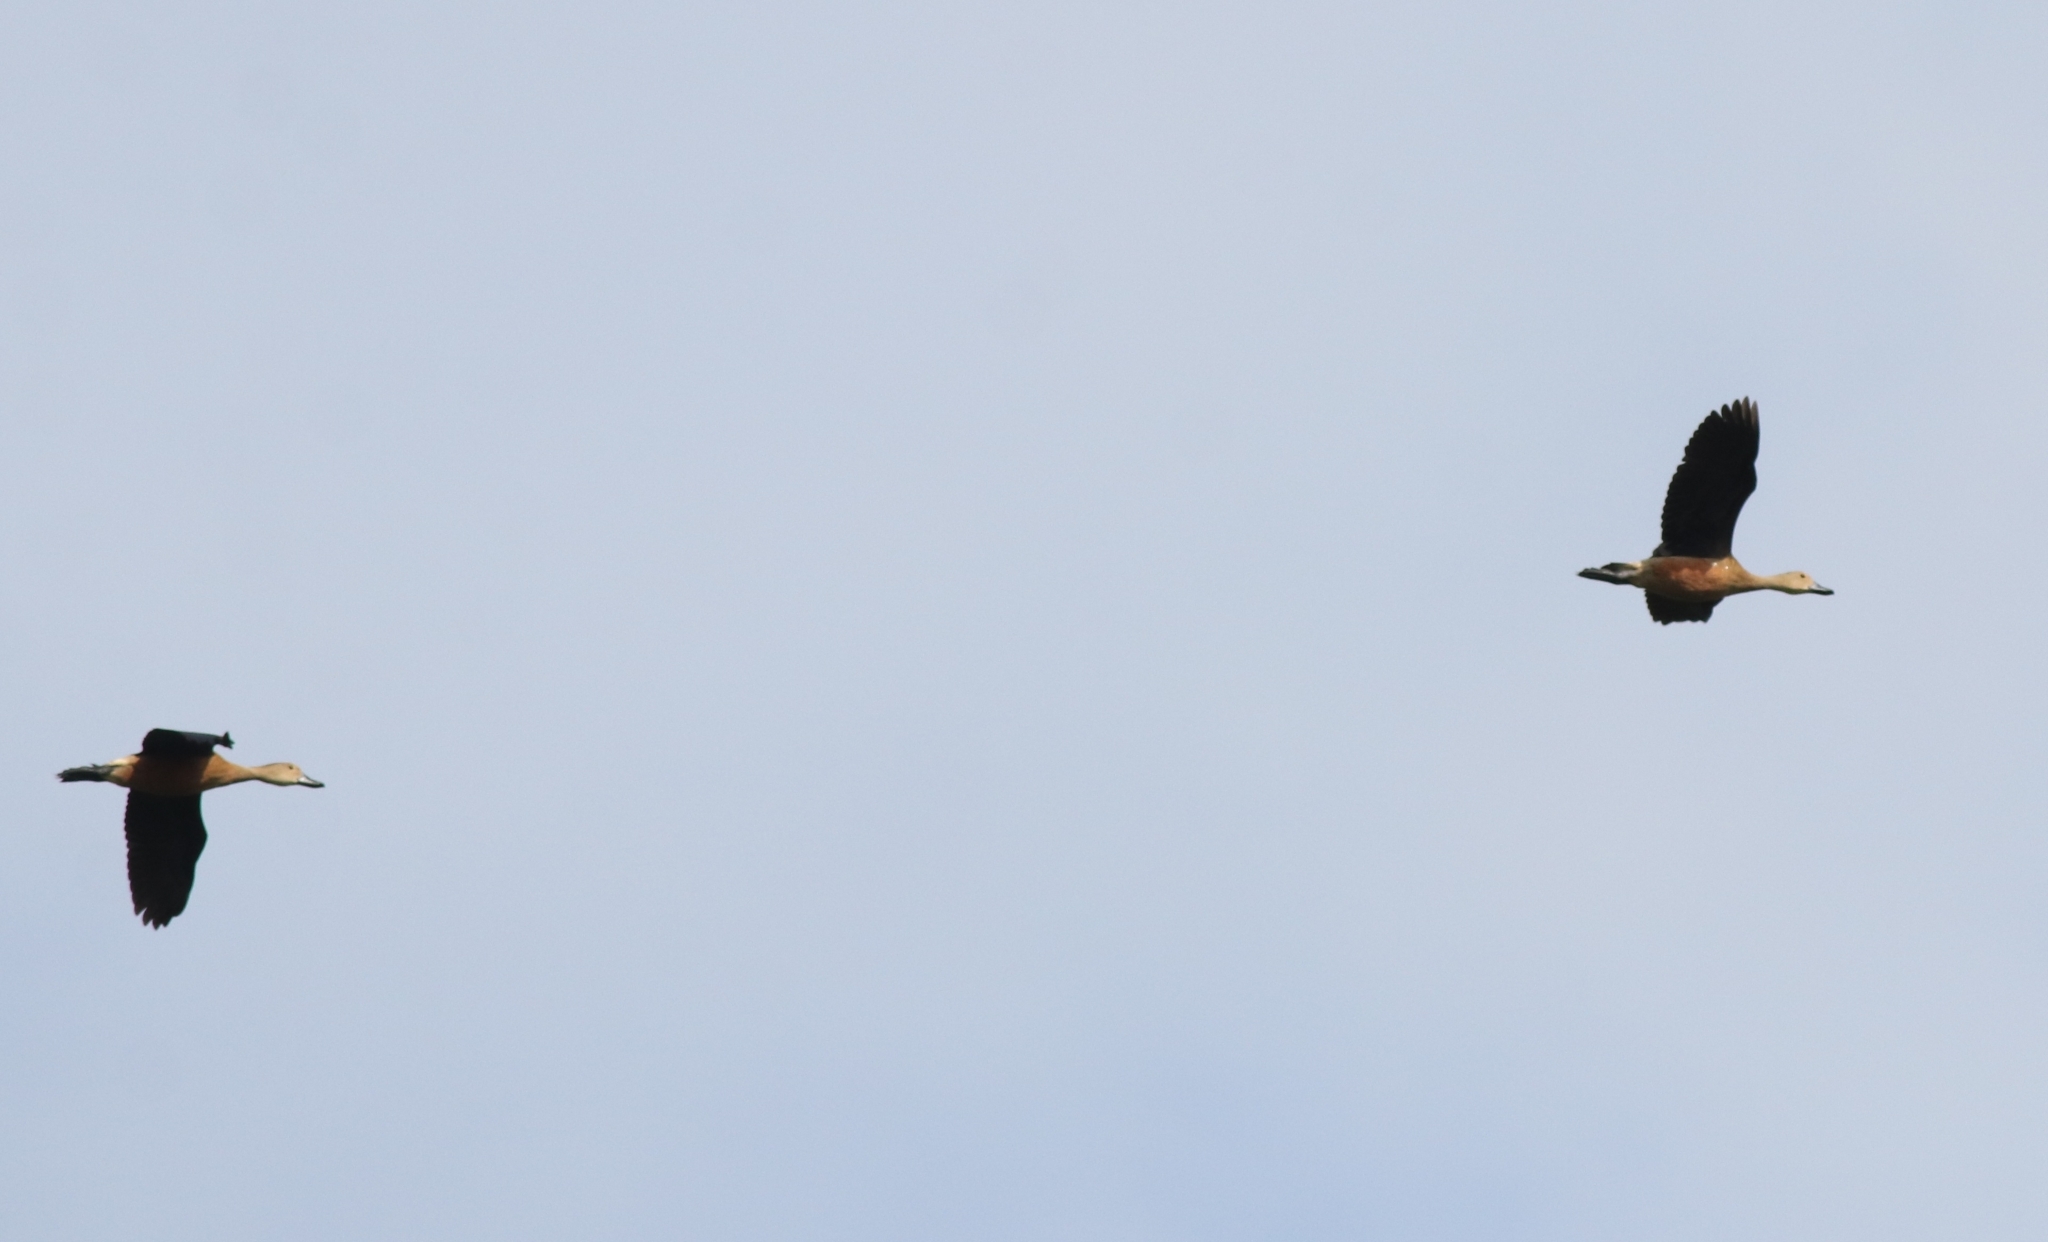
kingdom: Animalia
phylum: Chordata
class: Aves
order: Anseriformes
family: Anatidae
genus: Dendrocygna
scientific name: Dendrocygna javanica
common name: Lesser whistling-duck
